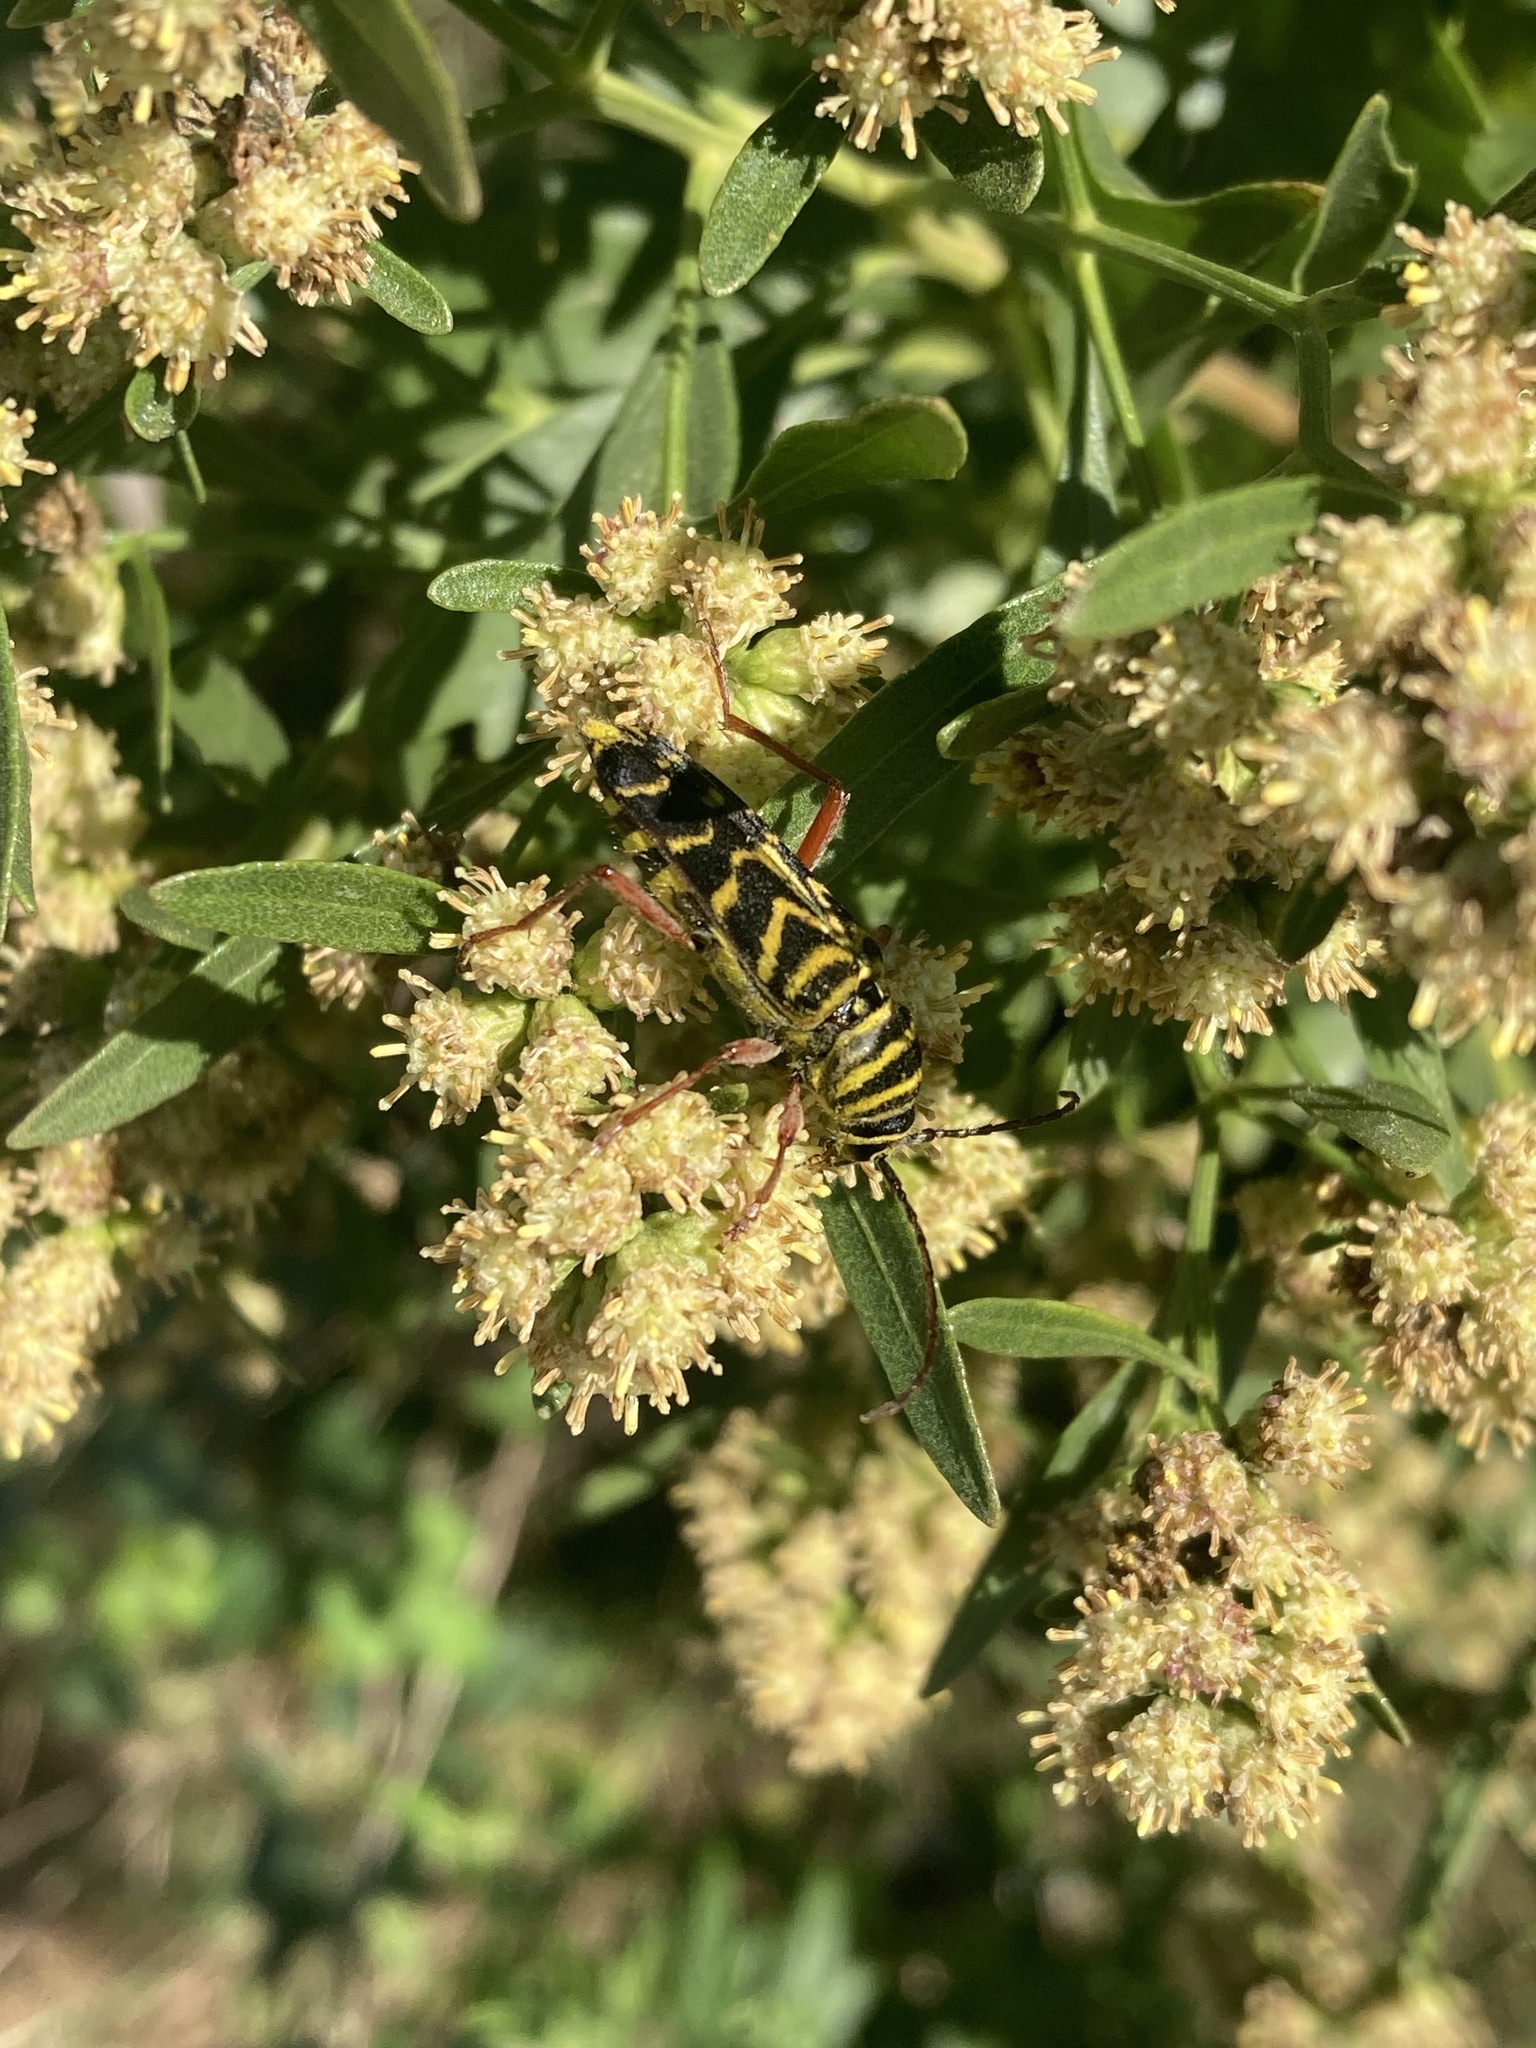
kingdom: Animalia
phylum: Arthropoda
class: Insecta
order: Coleoptera
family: Cerambycidae
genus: Megacyllene
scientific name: Megacyllene robiniae
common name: Locust borer
